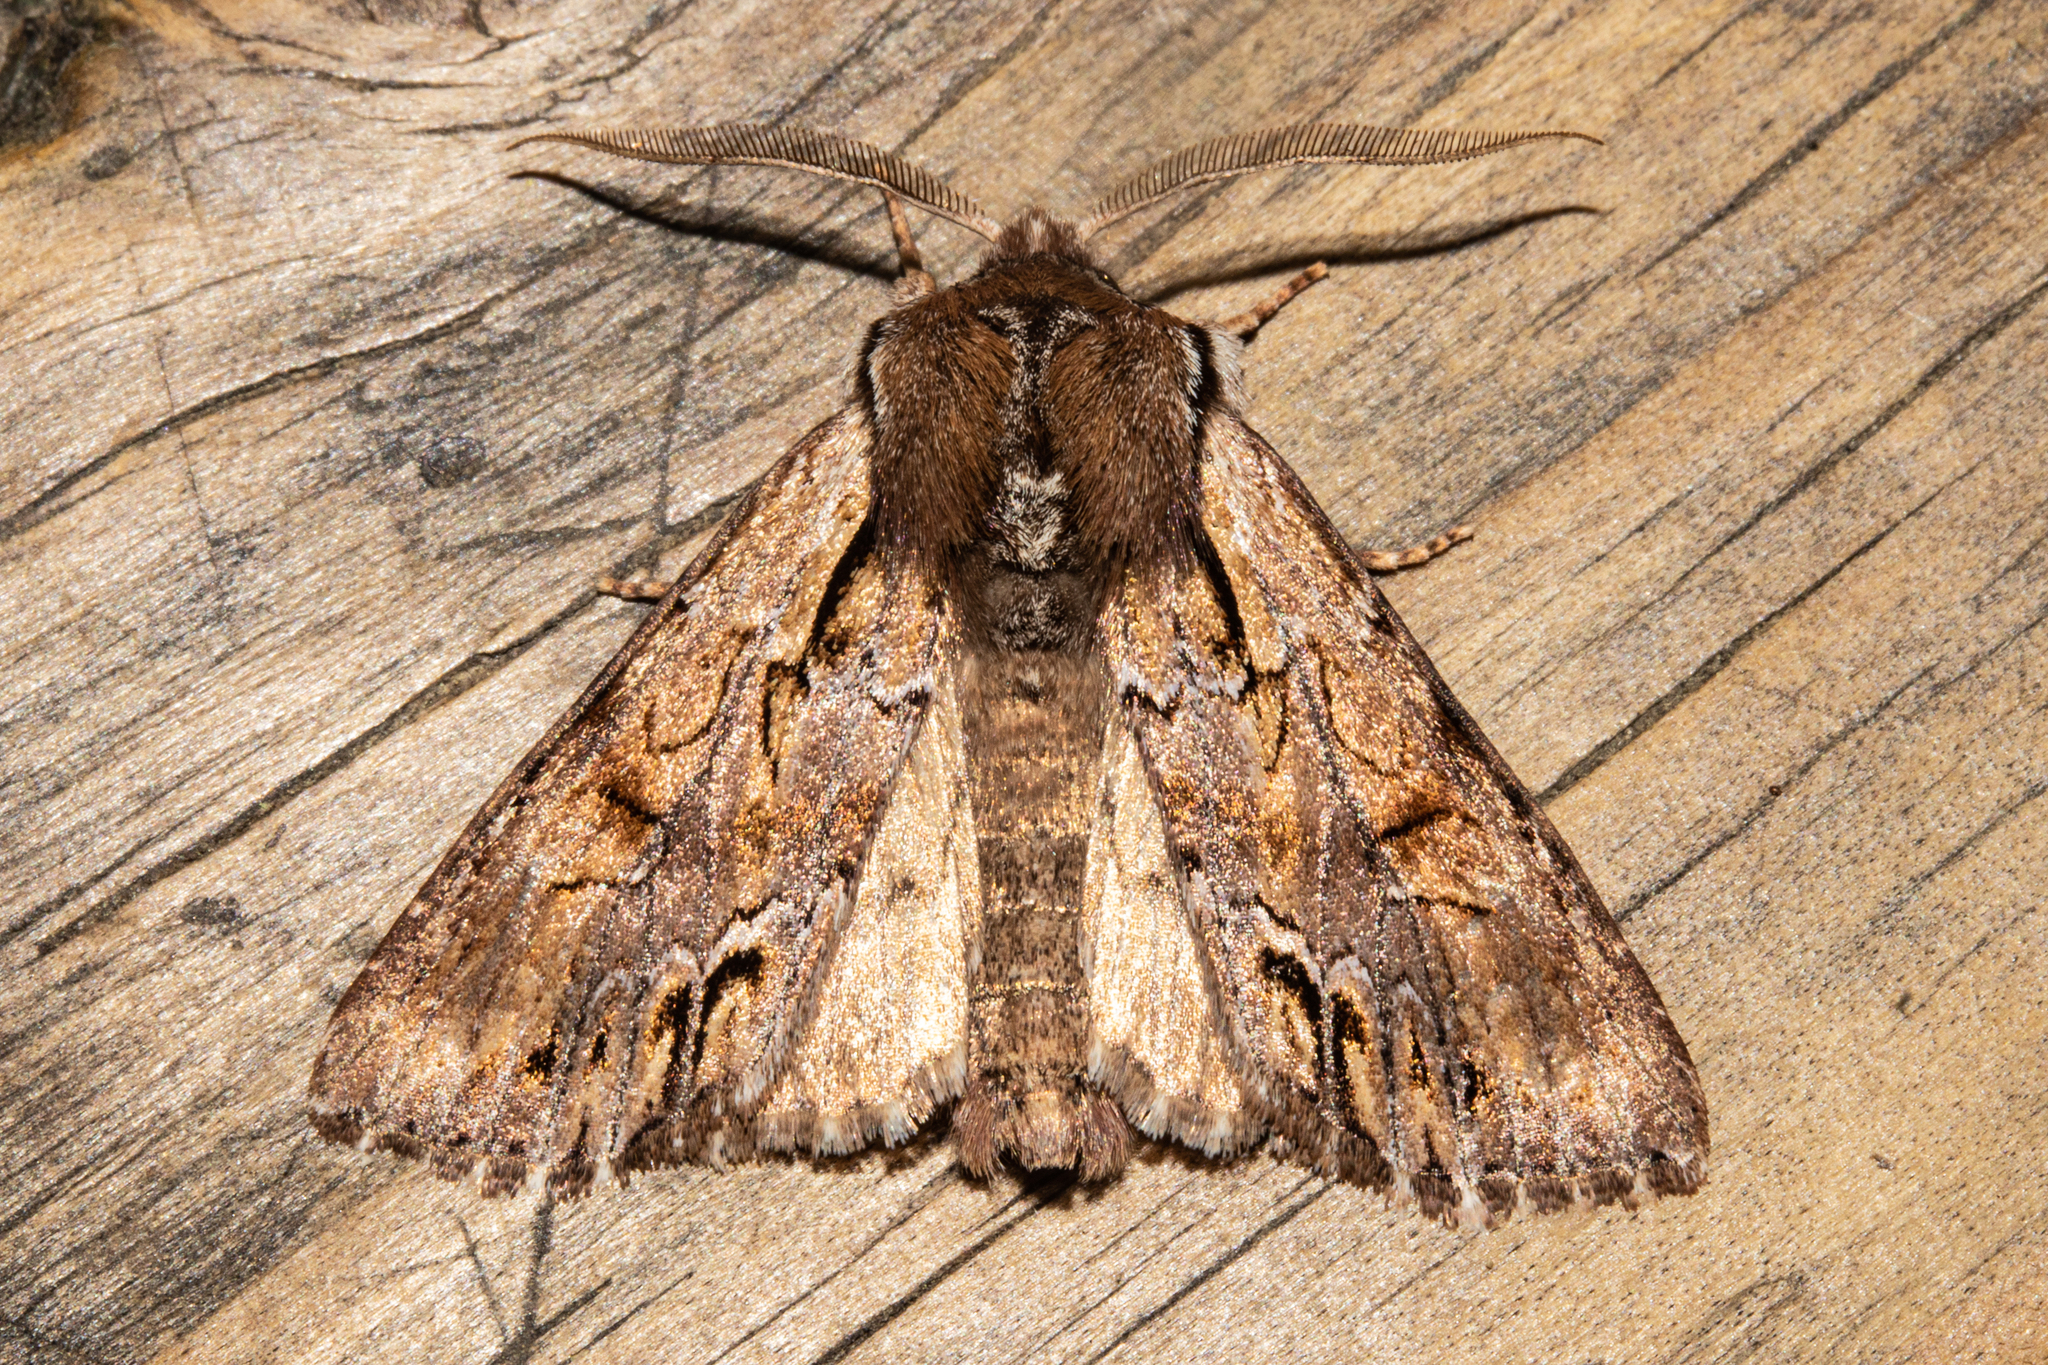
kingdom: Animalia
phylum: Arthropoda
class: Insecta
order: Lepidoptera
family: Noctuidae
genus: Ichneutica
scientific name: Ichneutica
